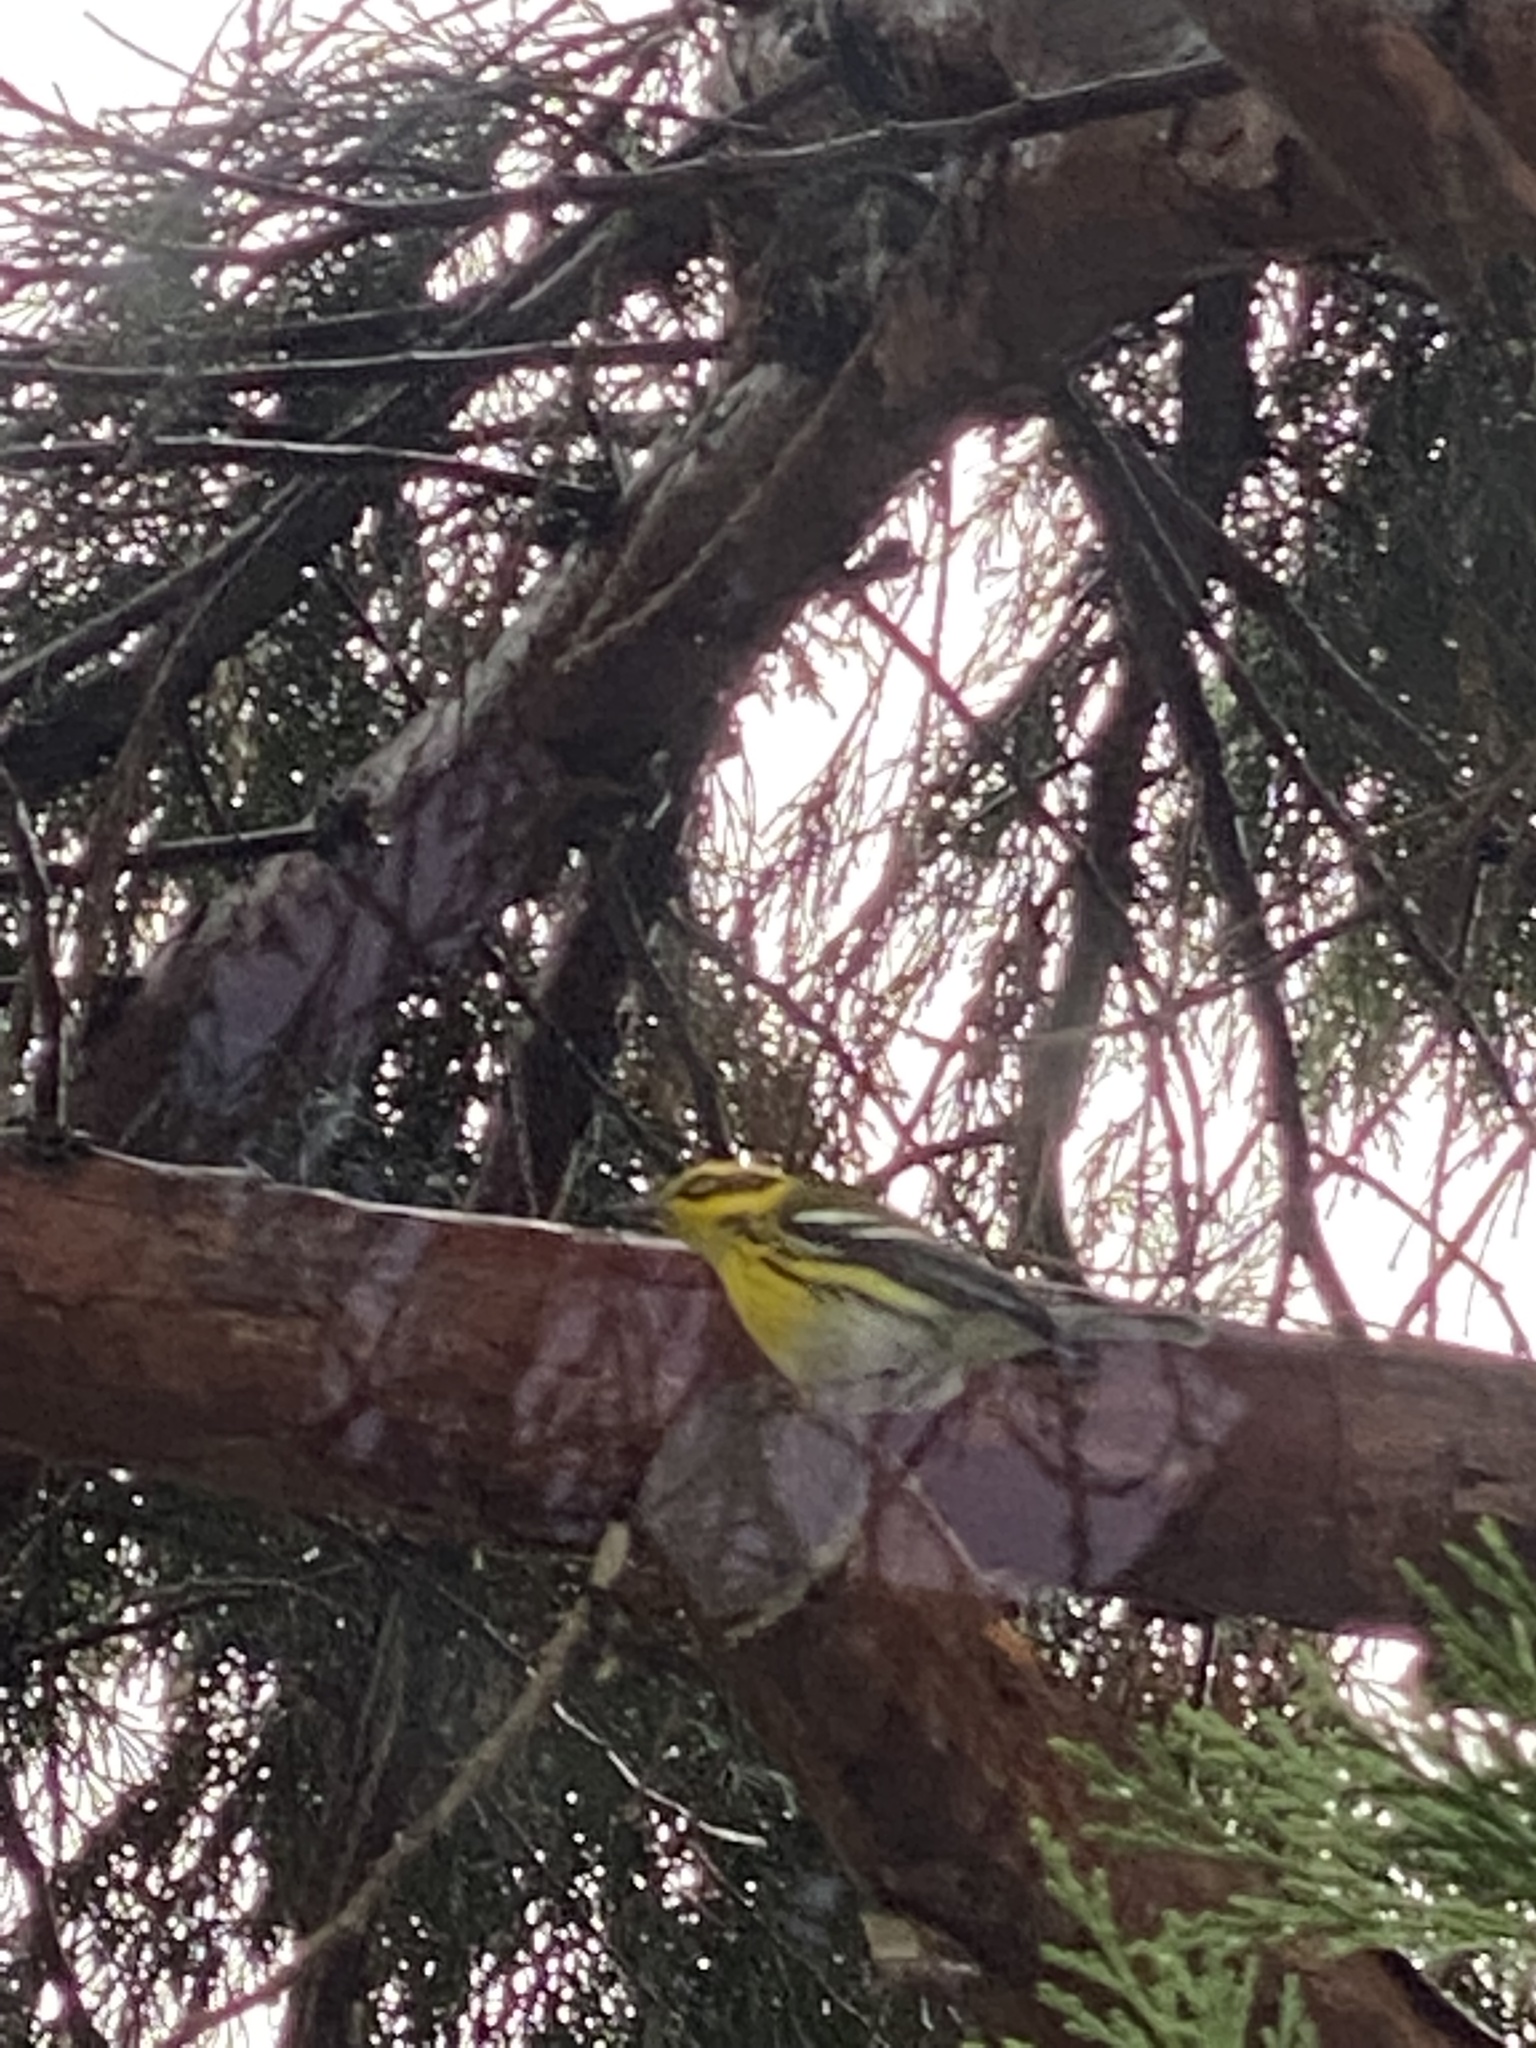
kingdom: Animalia
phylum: Chordata
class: Aves
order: Passeriformes
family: Parulidae
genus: Setophaga
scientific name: Setophaga townsendi
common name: Townsend's warbler
